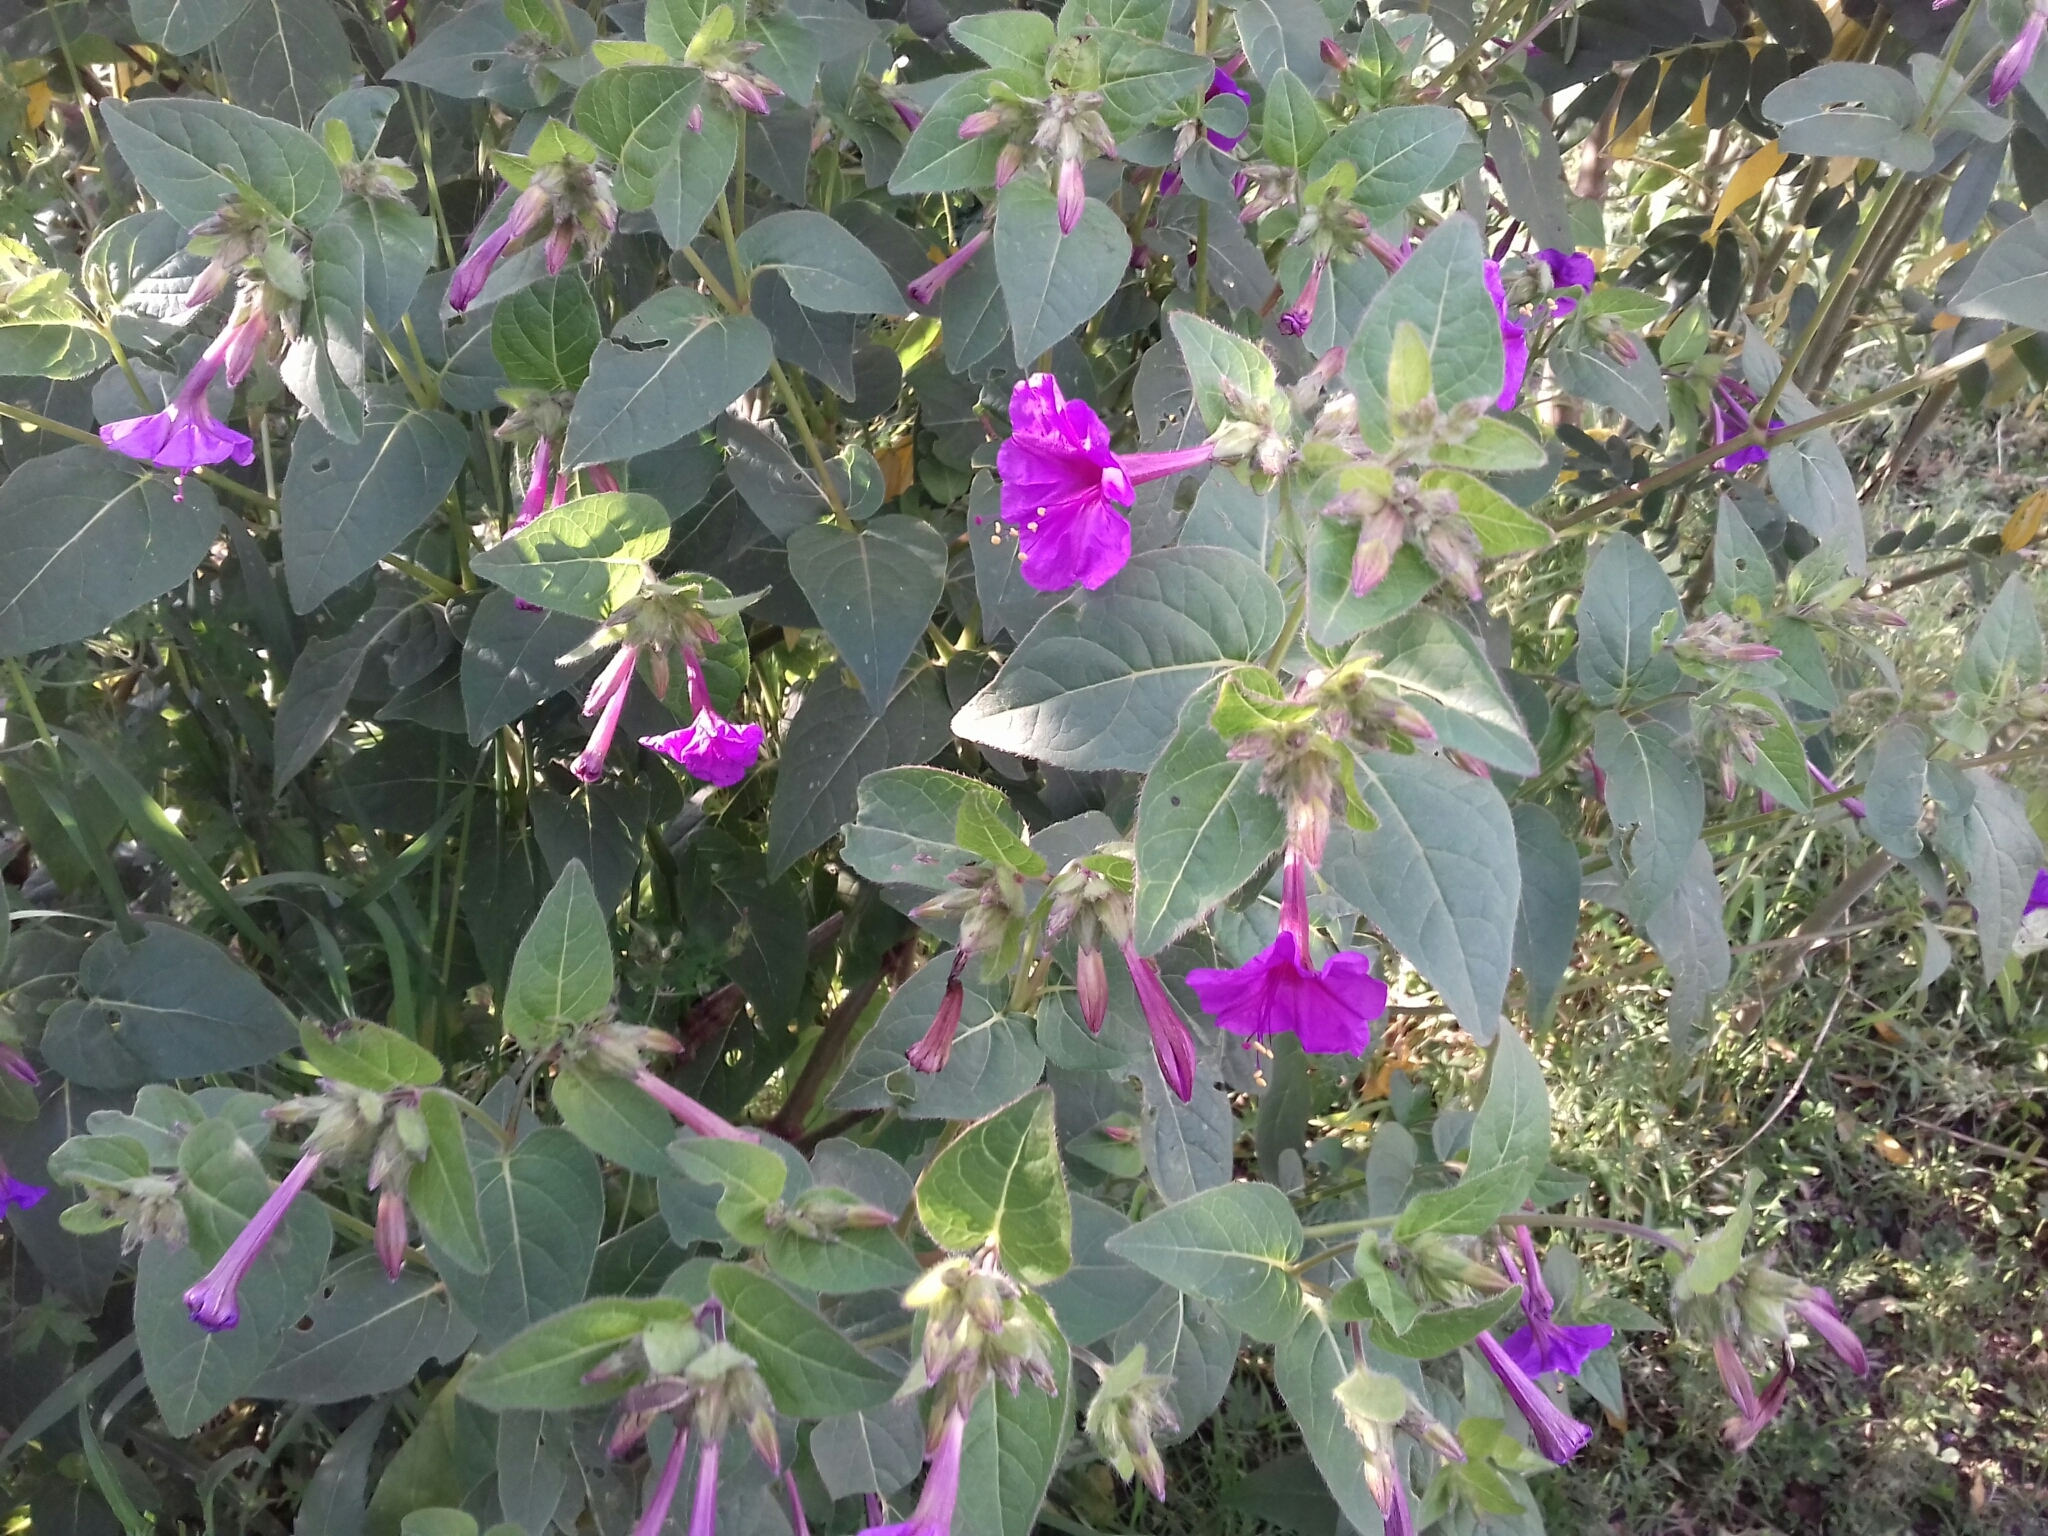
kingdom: Plantae
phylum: Tracheophyta
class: Magnoliopsida
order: Caryophyllales
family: Nyctaginaceae
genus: Mirabilis
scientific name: Mirabilis jalapa
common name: Marvel-of-peru
